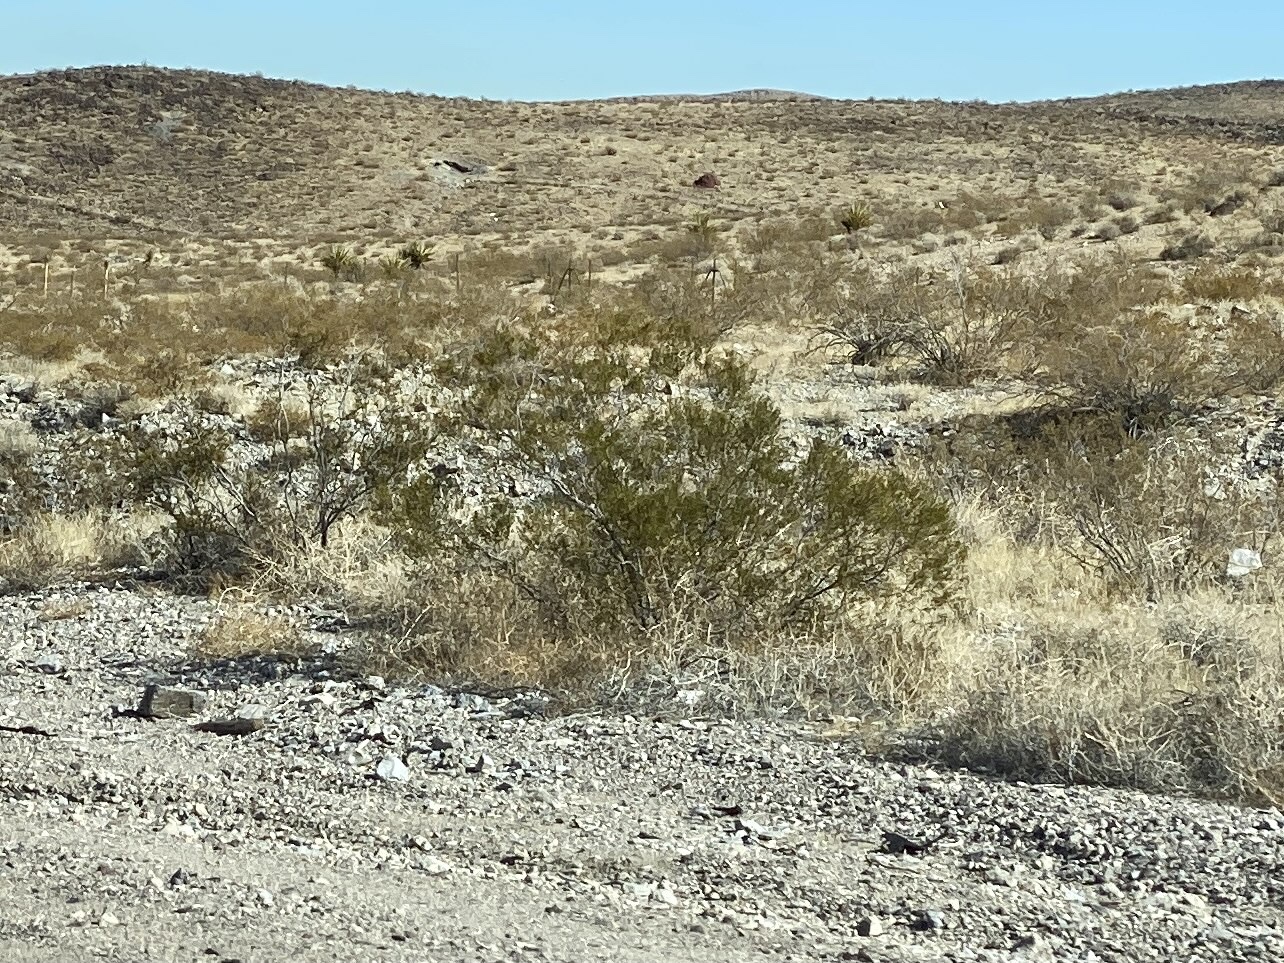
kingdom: Plantae
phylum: Tracheophyta
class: Magnoliopsida
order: Zygophyllales
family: Zygophyllaceae
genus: Larrea
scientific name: Larrea tridentata
